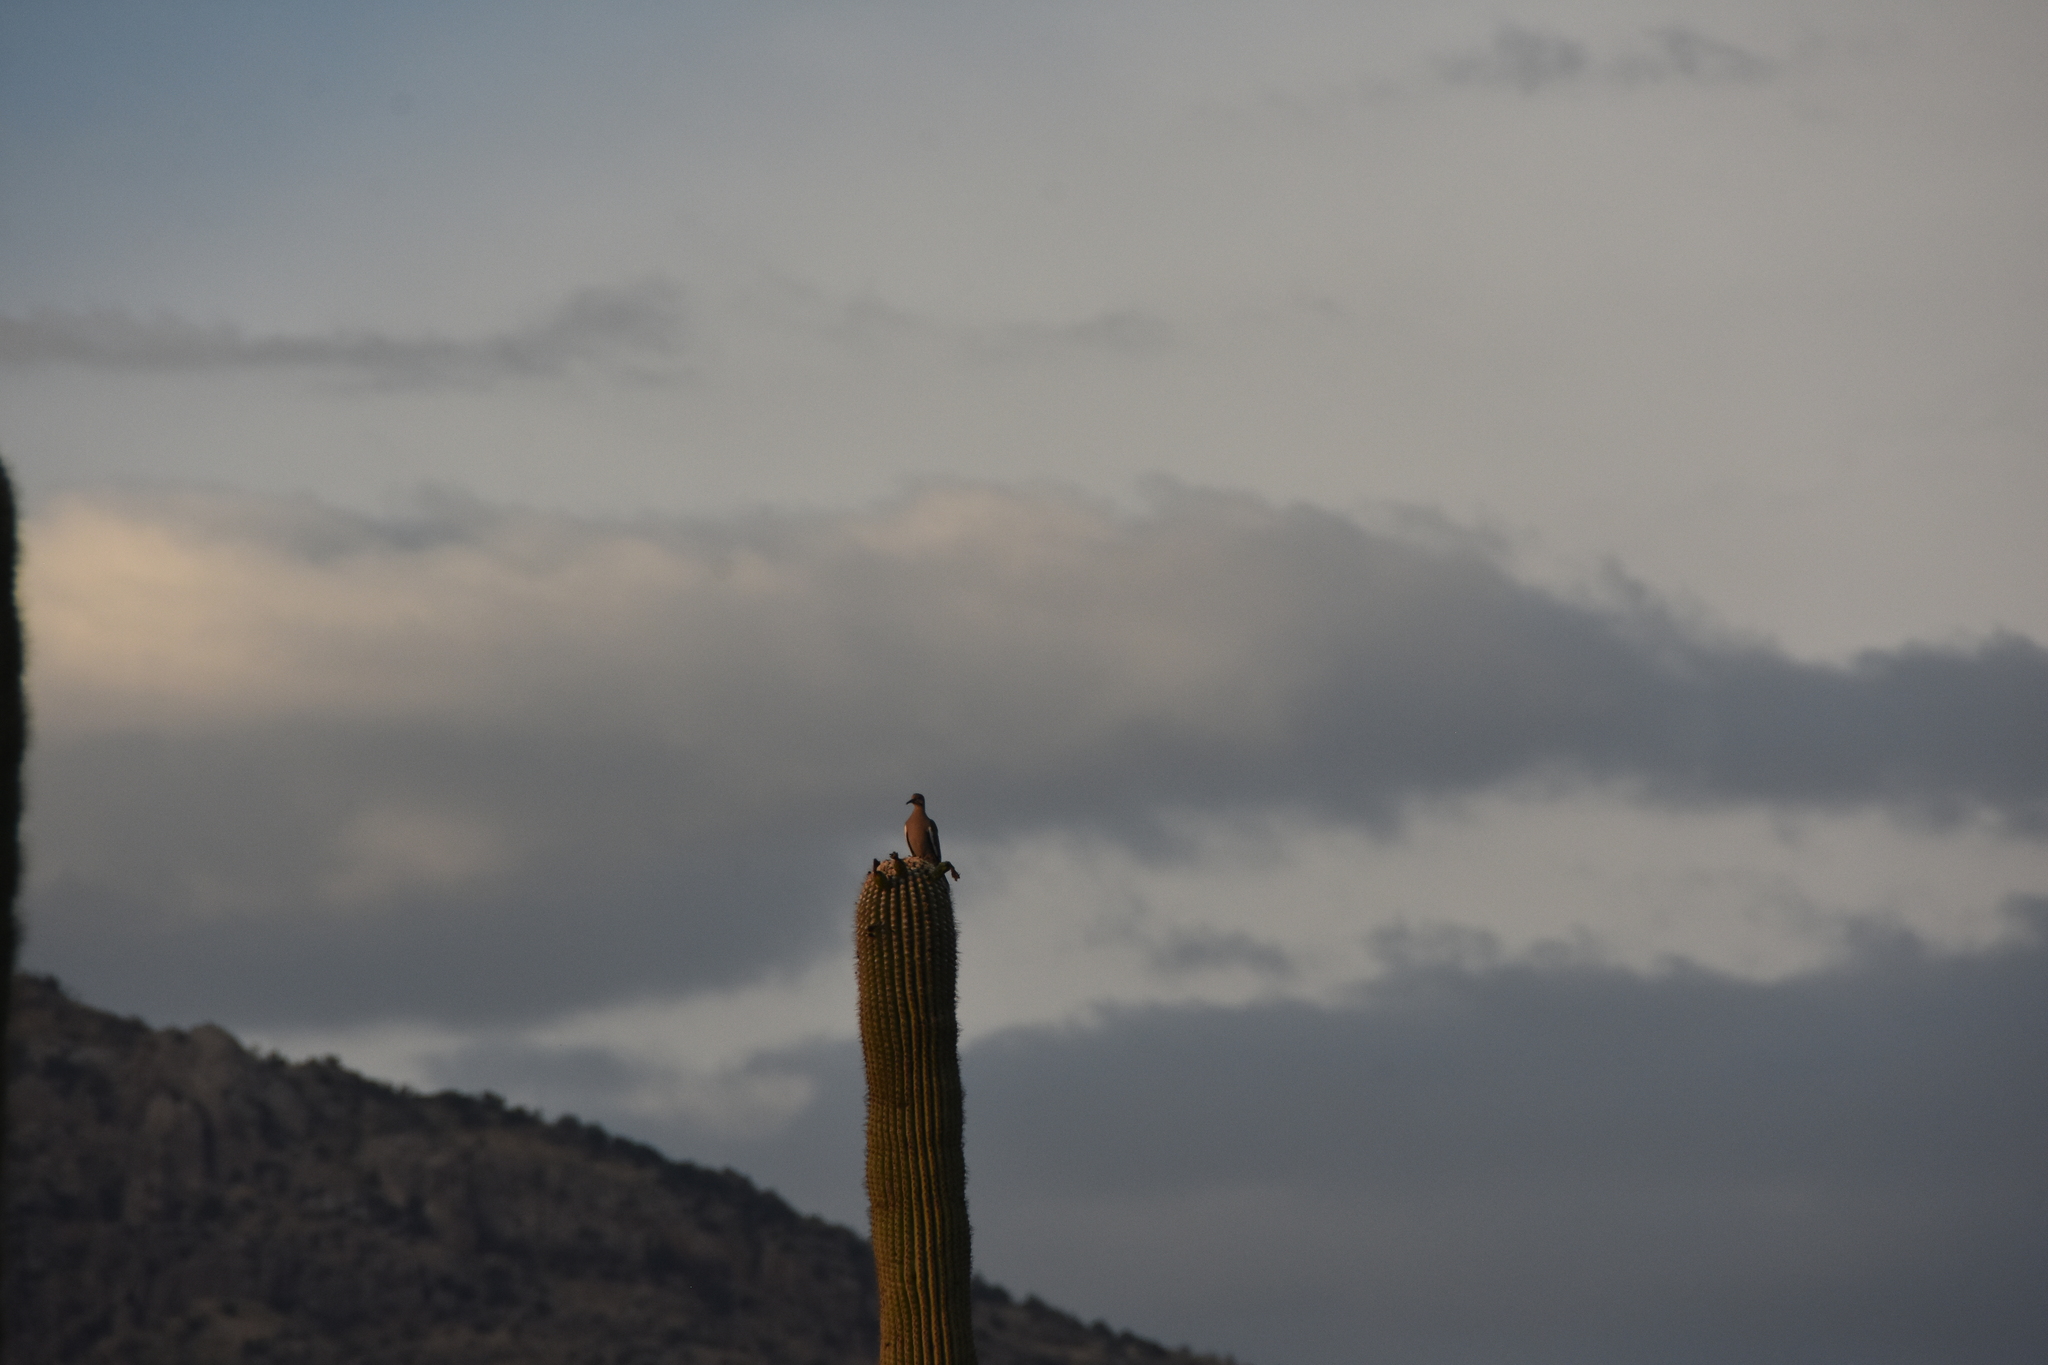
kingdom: Animalia
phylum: Chordata
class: Aves
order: Columbiformes
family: Columbidae
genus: Zenaida
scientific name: Zenaida asiatica
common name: White-winged dove
